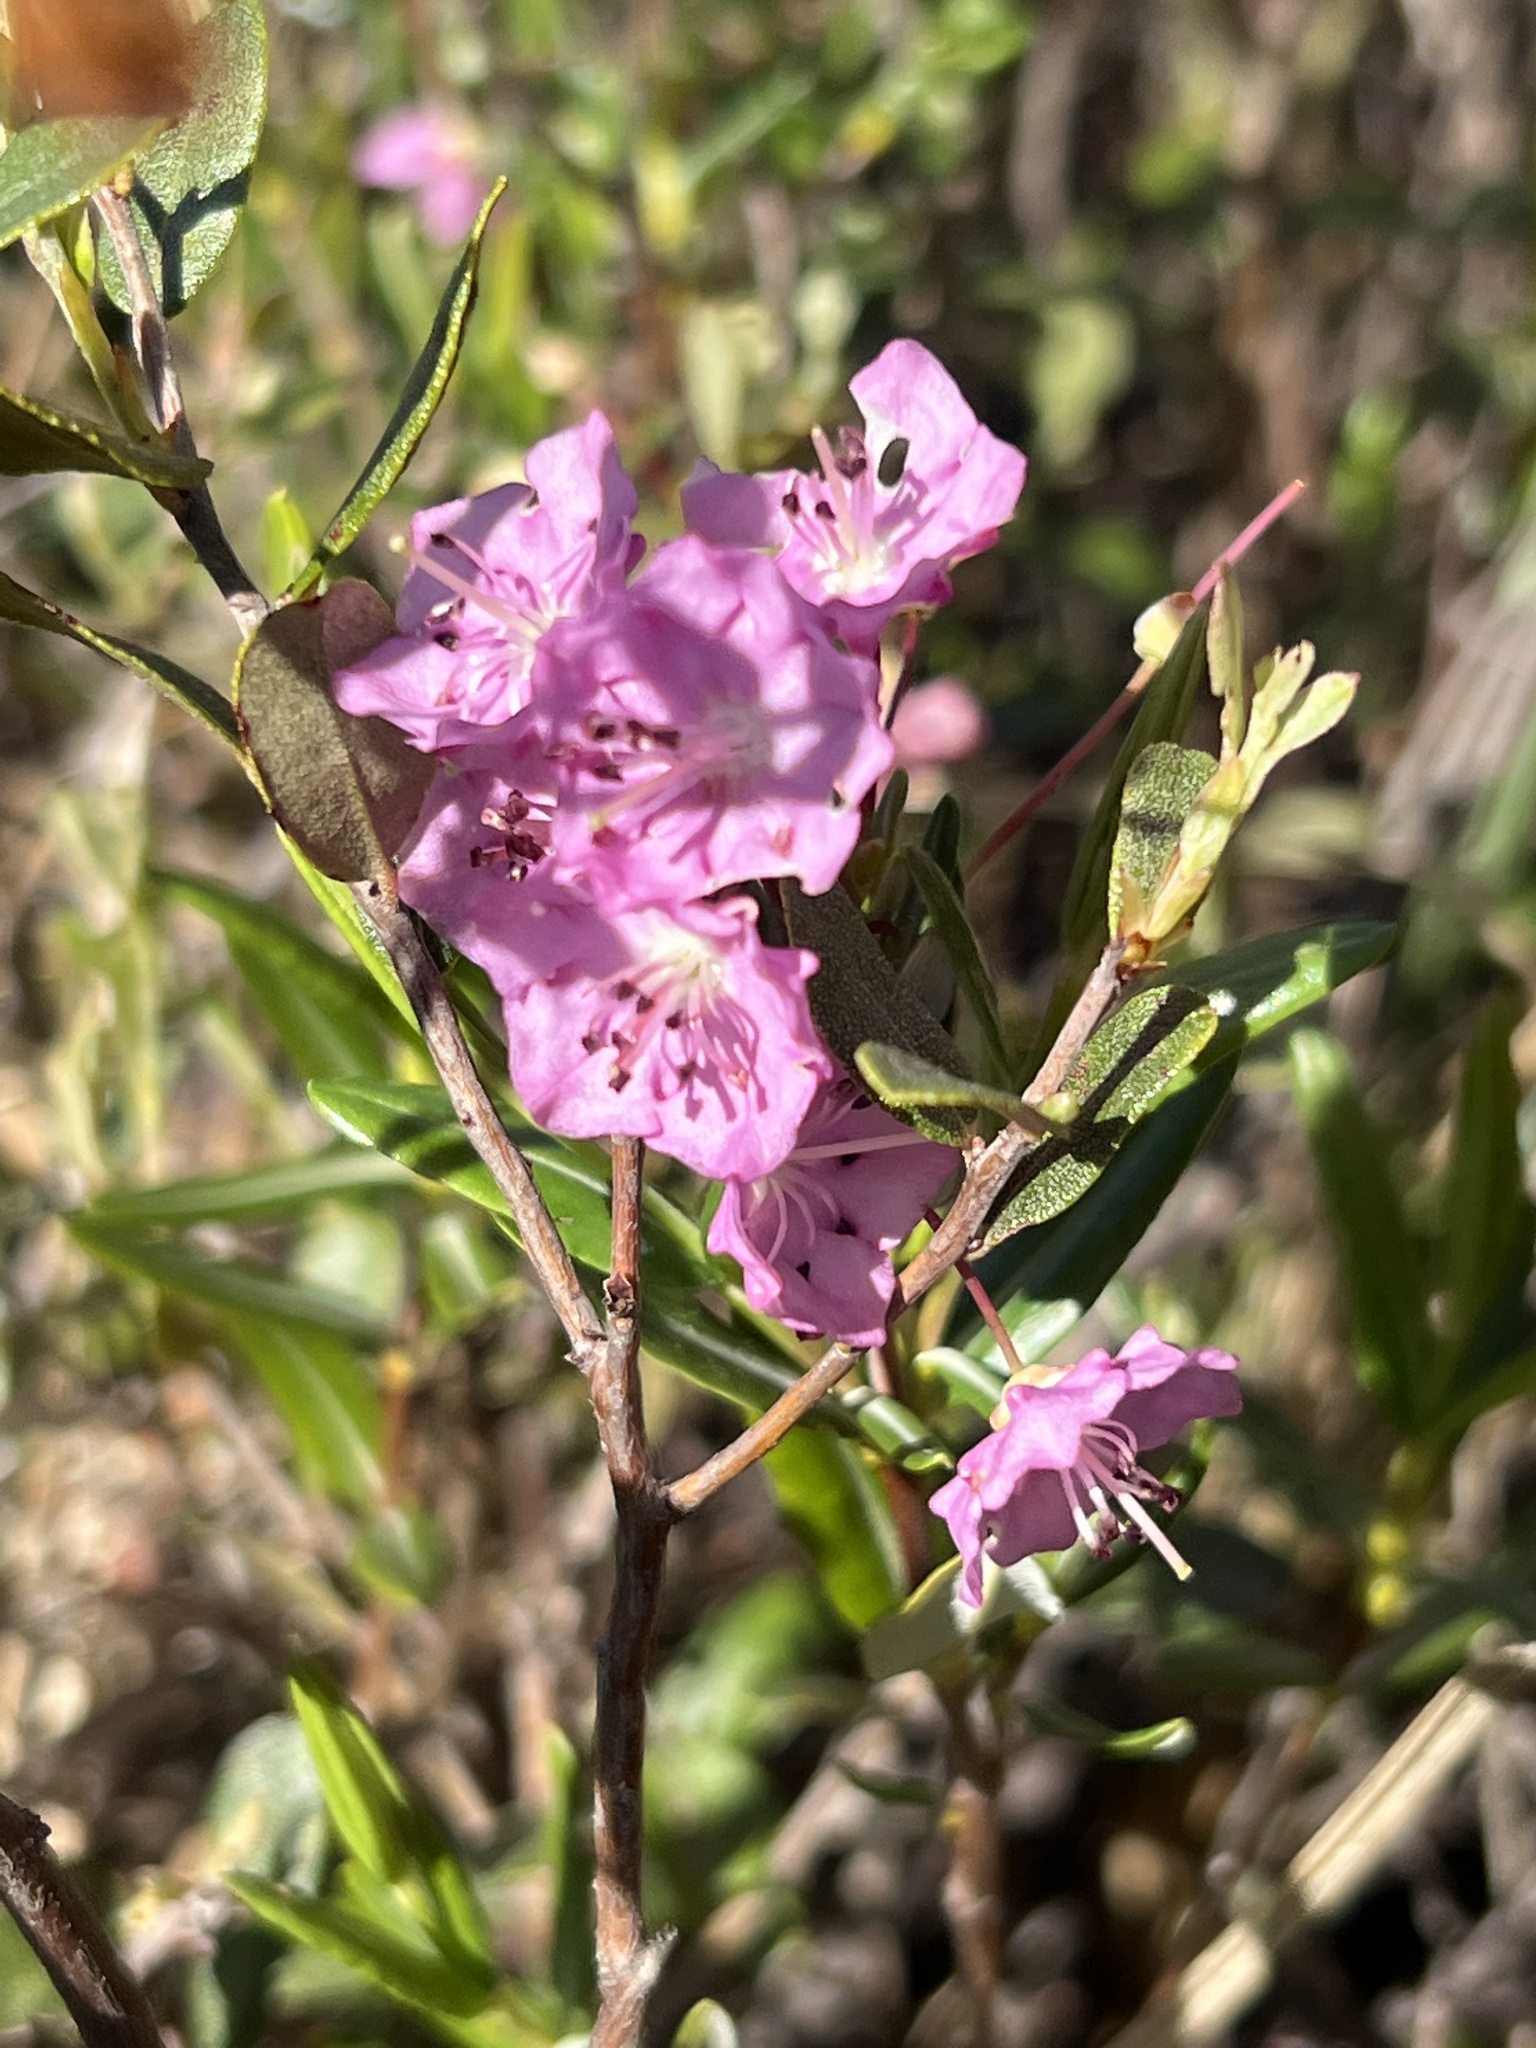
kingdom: Plantae
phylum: Tracheophyta
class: Magnoliopsida
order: Ericales
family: Ericaceae
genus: Kalmia
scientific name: Kalmia polifolia
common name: Bog-laurel
